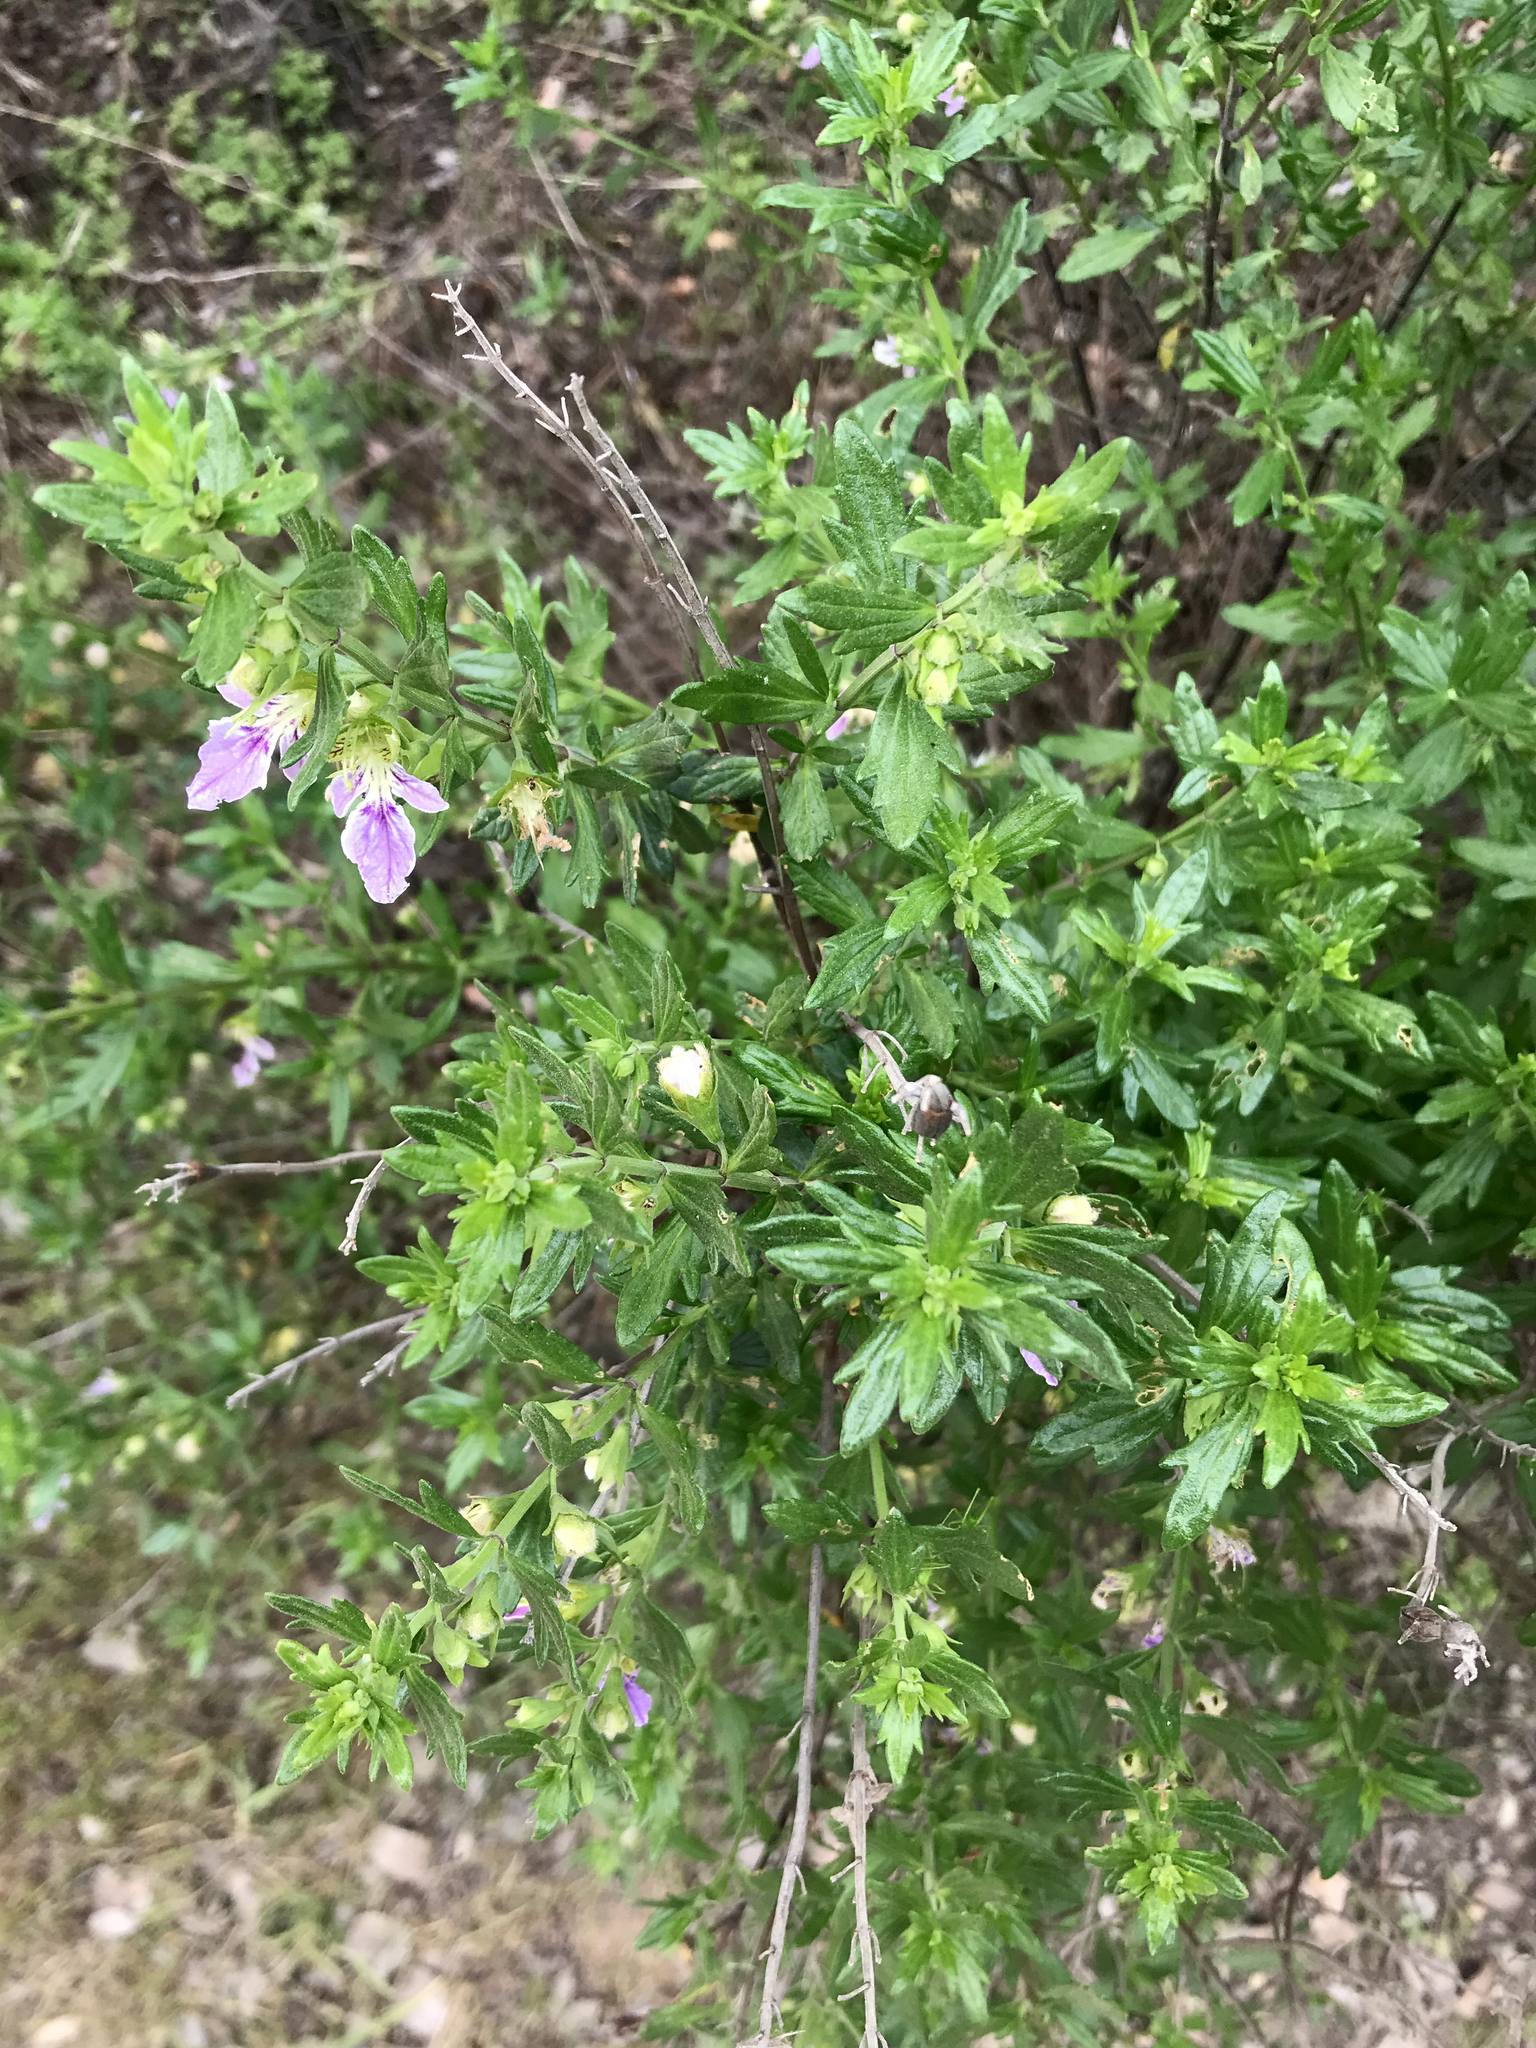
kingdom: Plantae
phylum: Tracheophyta
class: Magnoliopsida
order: Lamiales
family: Lamiaceae
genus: Teucrium
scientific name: Teucrium bicolor
